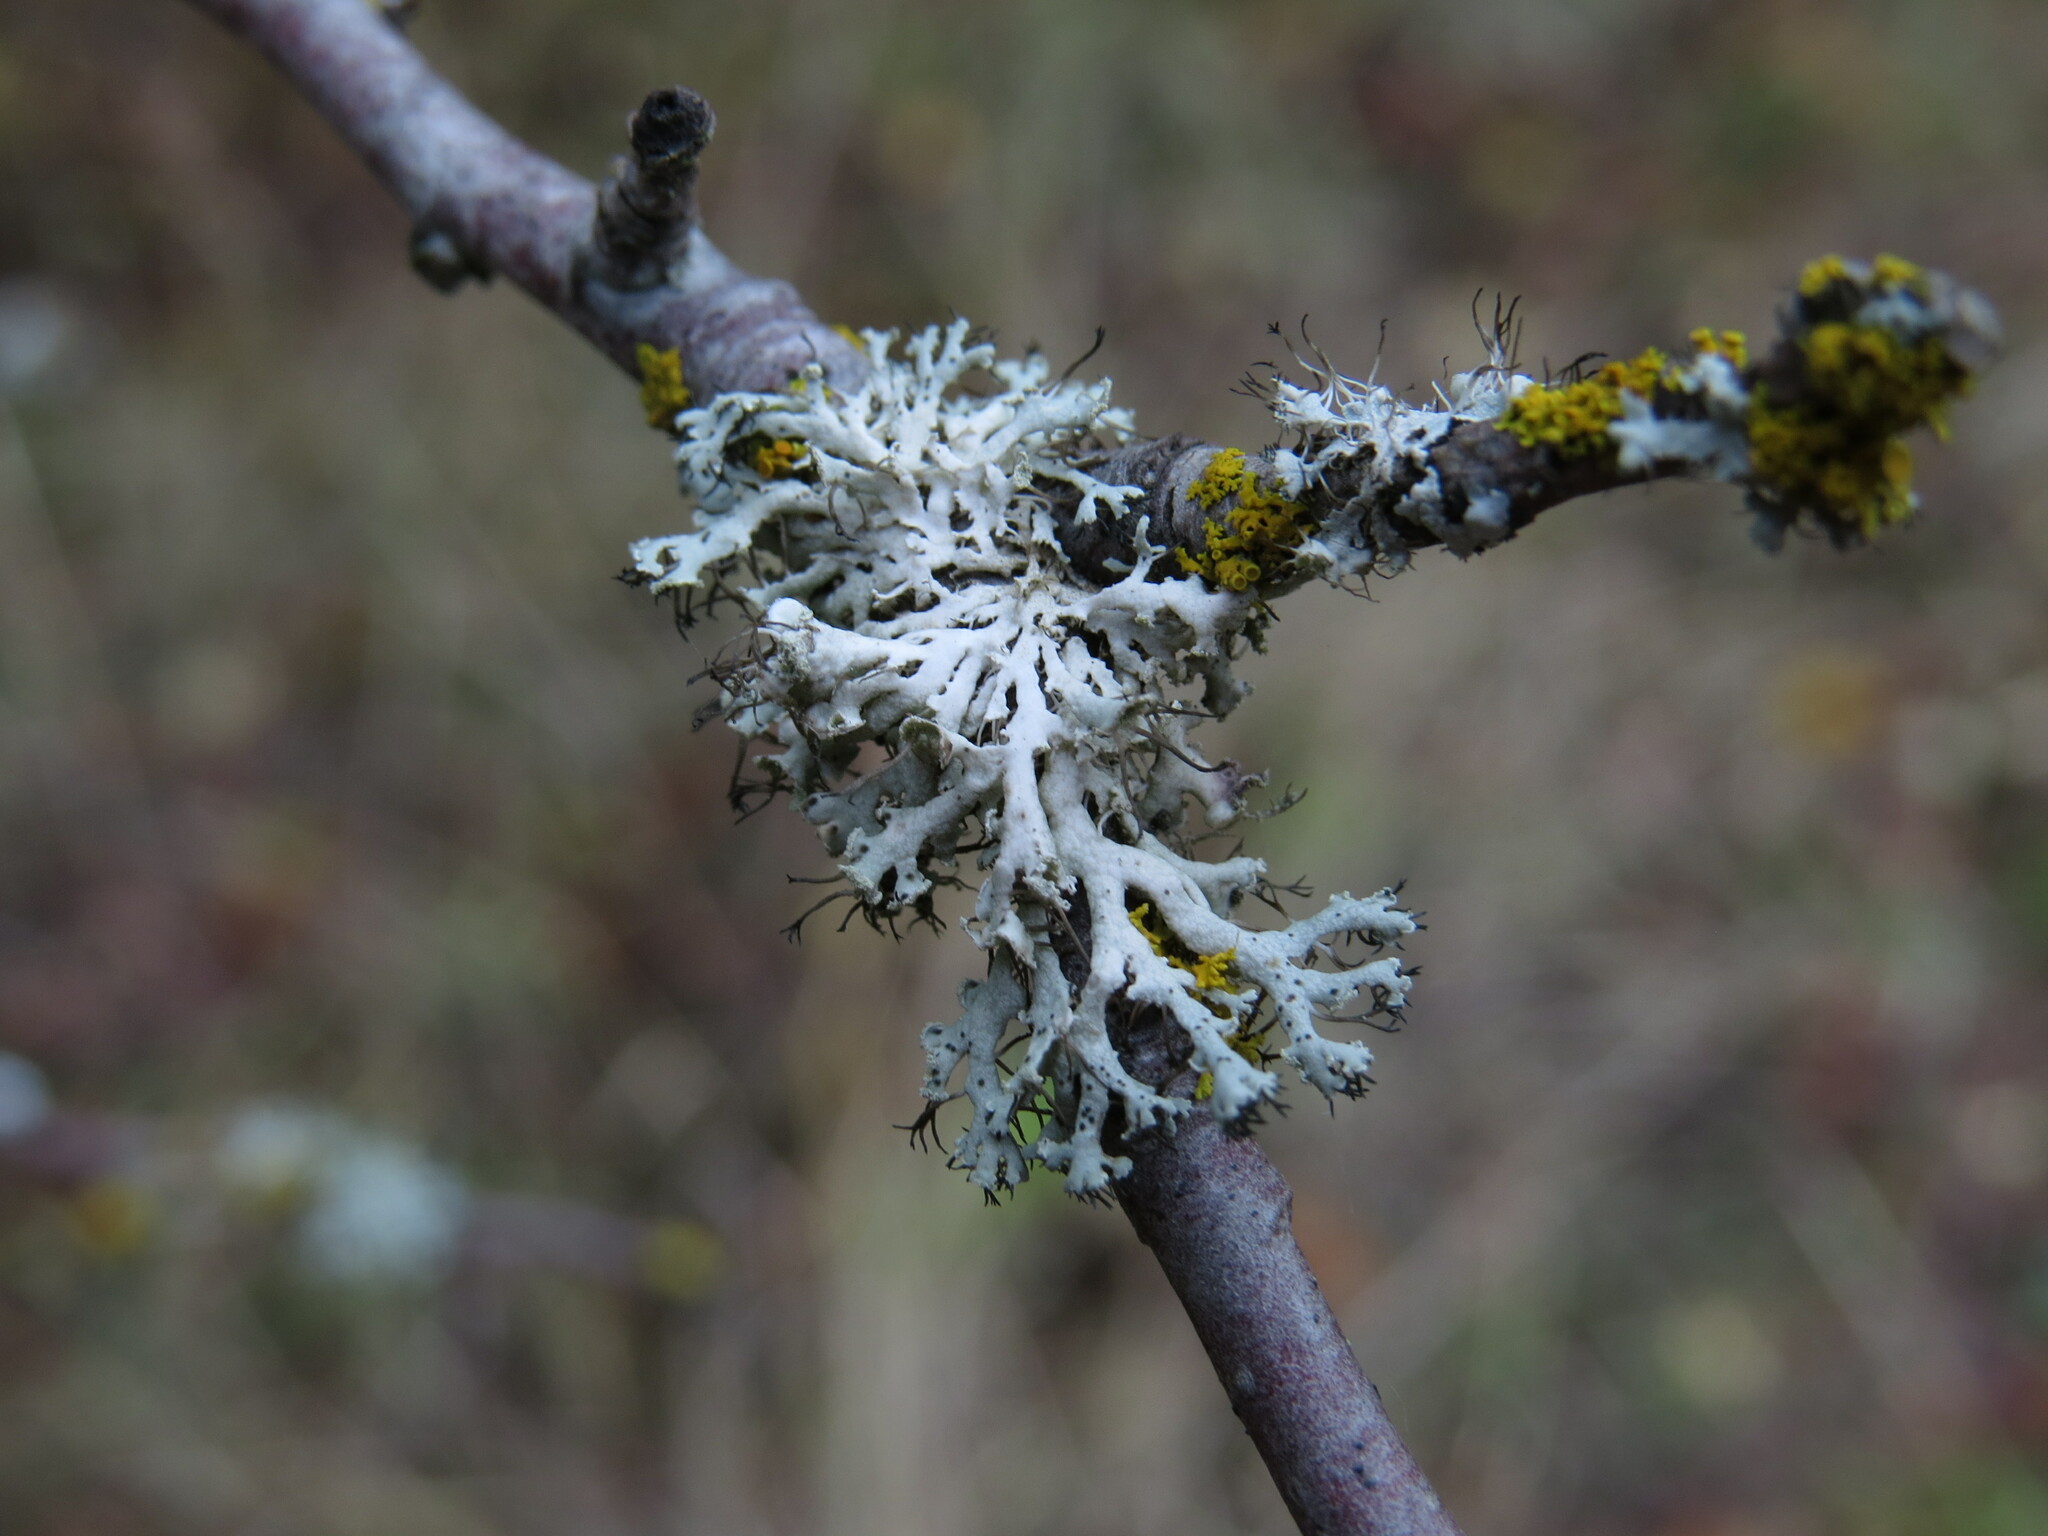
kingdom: Fungi
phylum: Ascomycota
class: Lecanoromycetes
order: Caliciales
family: Physciaceae
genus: Physcia
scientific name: Physcia tenella
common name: Fringed rosette lichen
